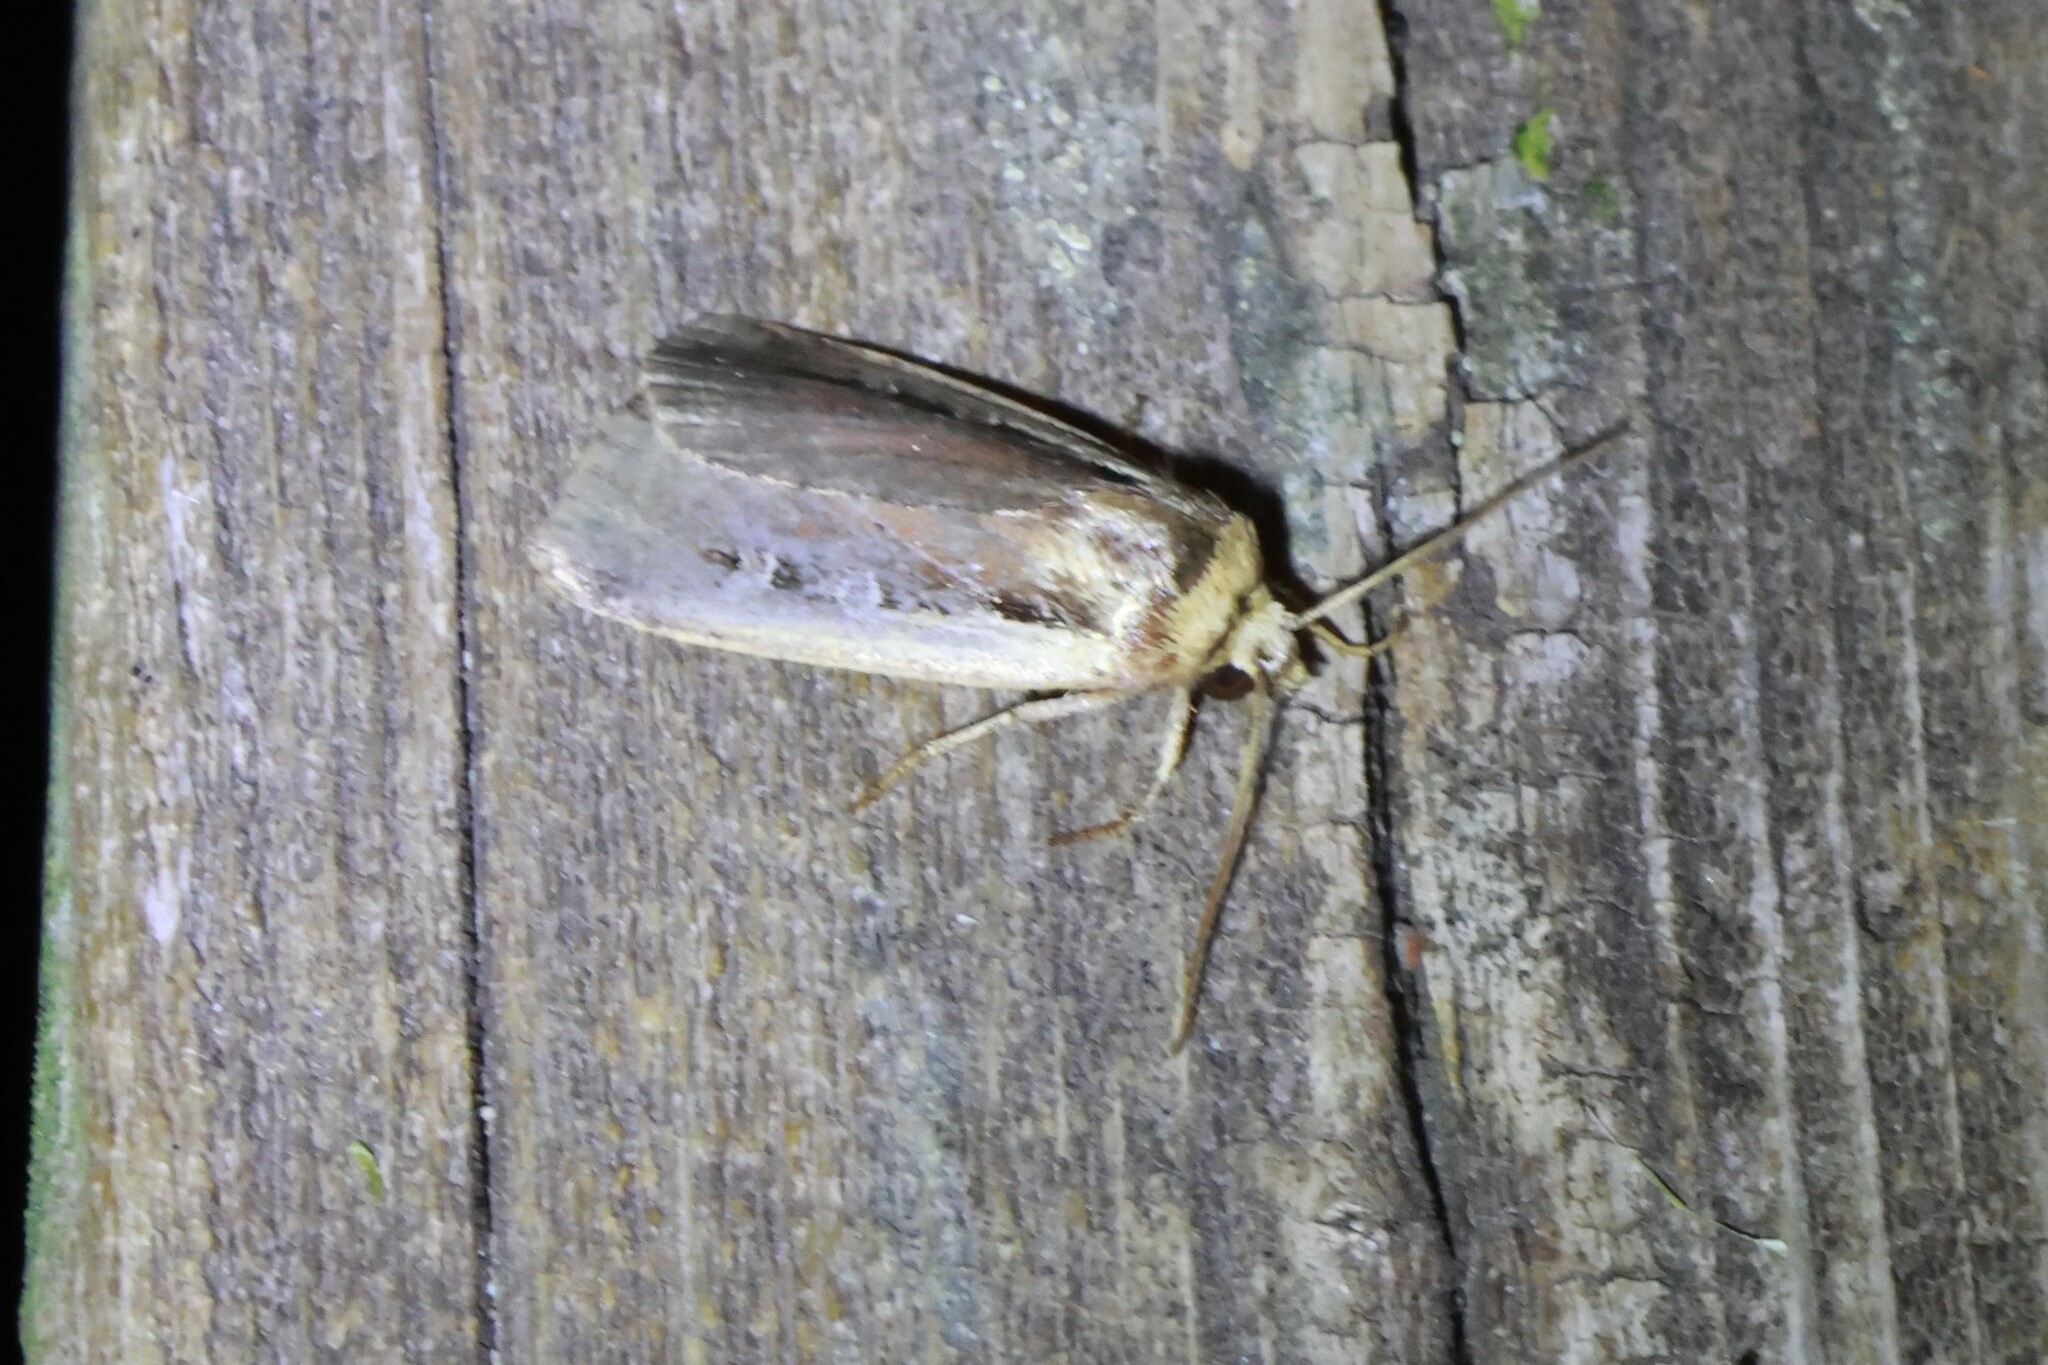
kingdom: Animalia
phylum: Arthropoda
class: Insecta
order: Lepidoptera
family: Noctuidae
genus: Ochropleura
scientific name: Ochropleura implecta
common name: Flame-shouldered dart
